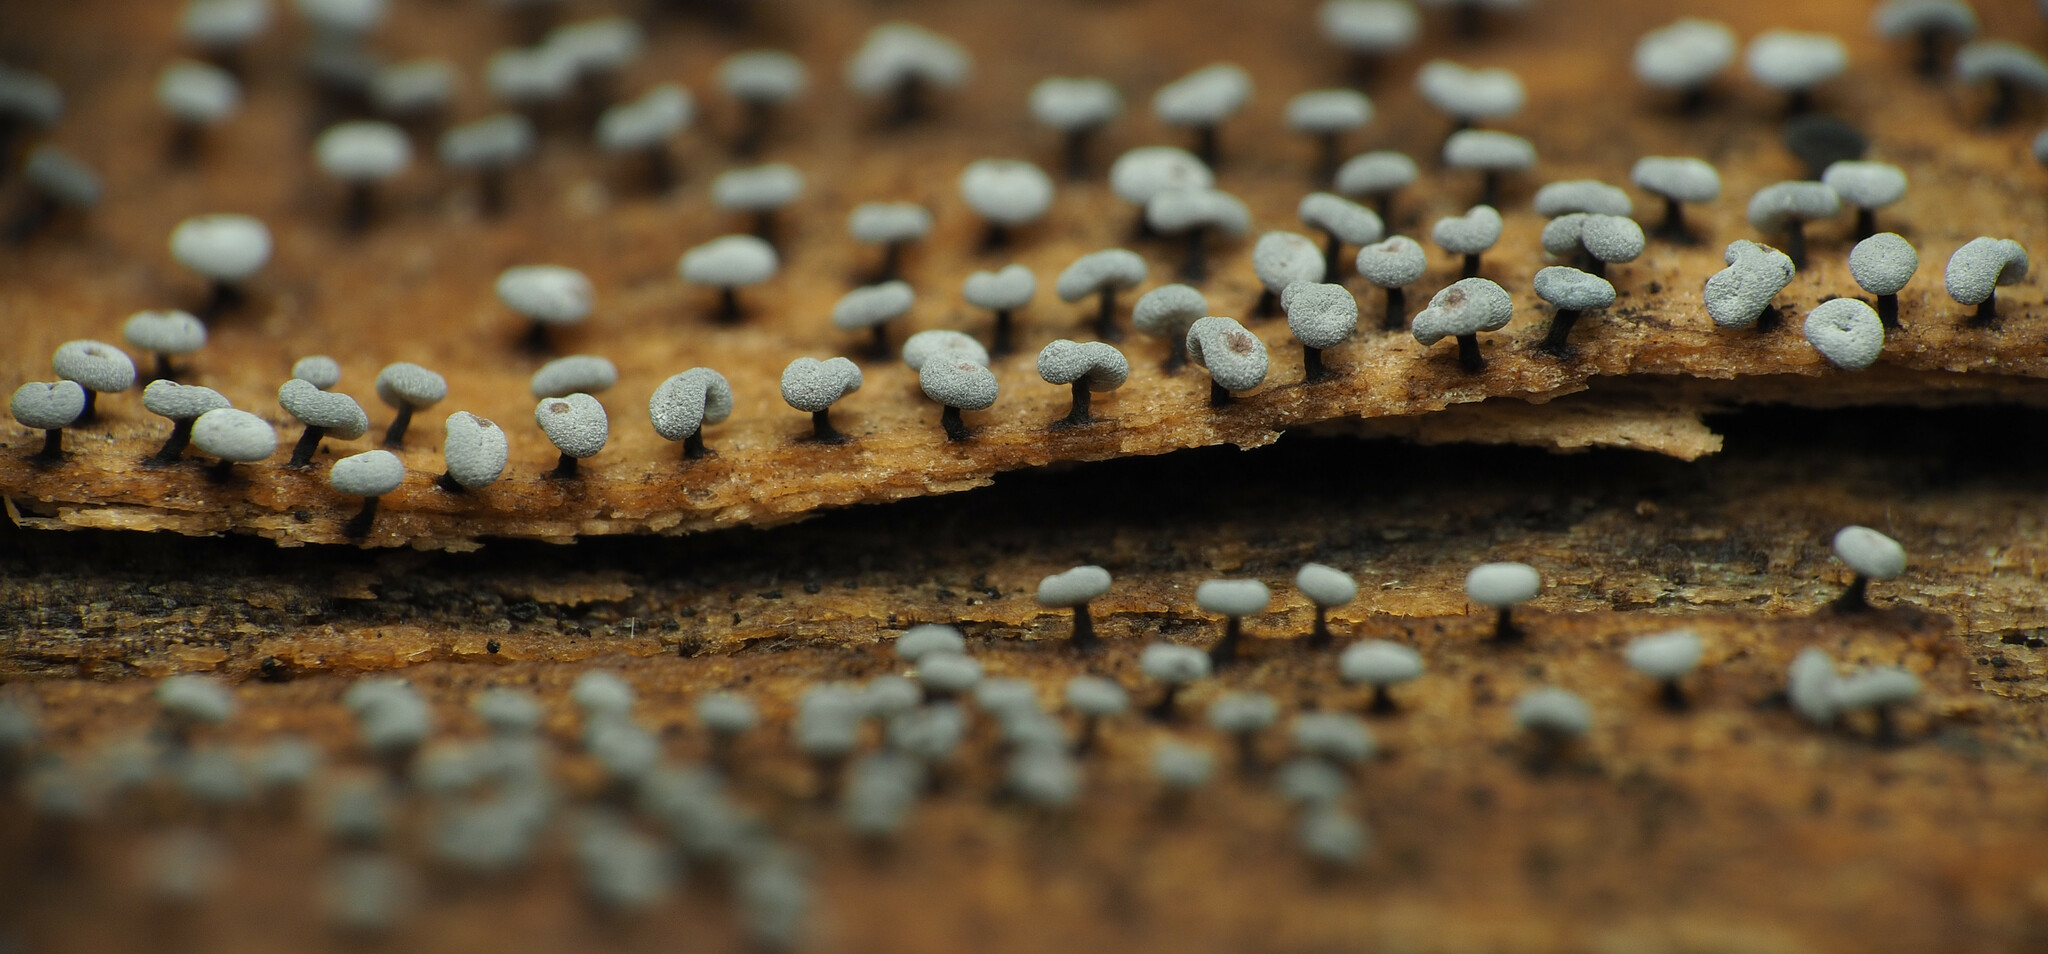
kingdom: Protozoa
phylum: Mycetozoa
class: Myxomycetes
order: Physarales
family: Didymiaceae
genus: Didymium
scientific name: Didymium clavus
